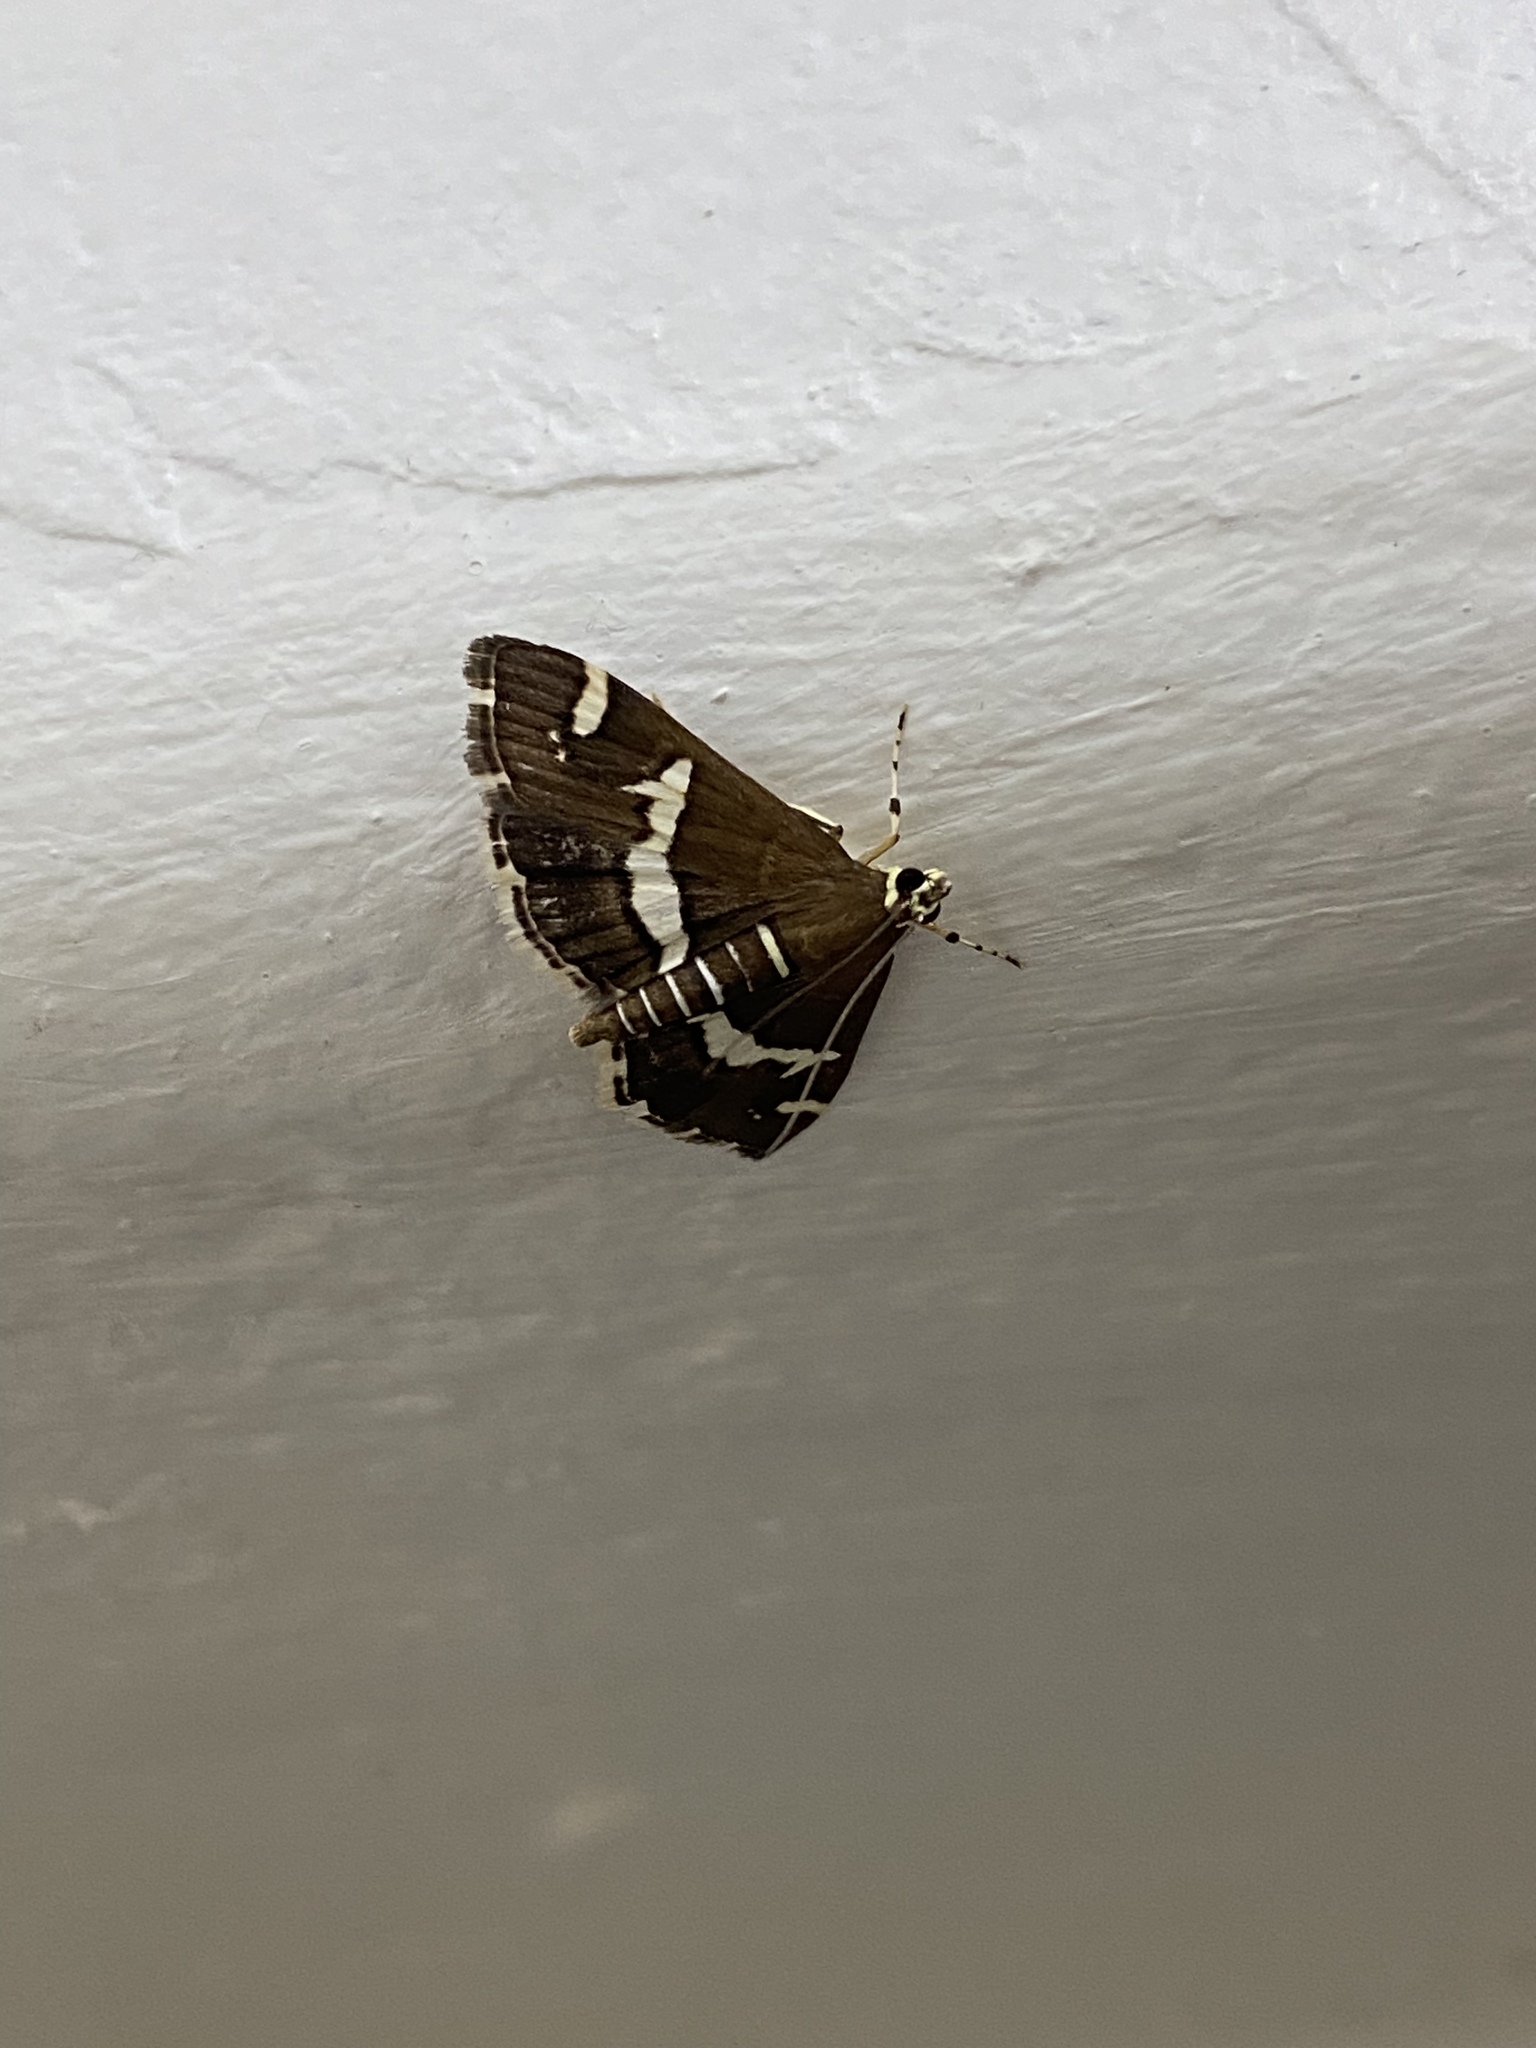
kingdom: Animalia
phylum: Arthropoda
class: Insecta
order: Lepidoptera
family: Crambidae
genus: Spoladea
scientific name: Spoladea recurvalis
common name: Beet webworm moth
